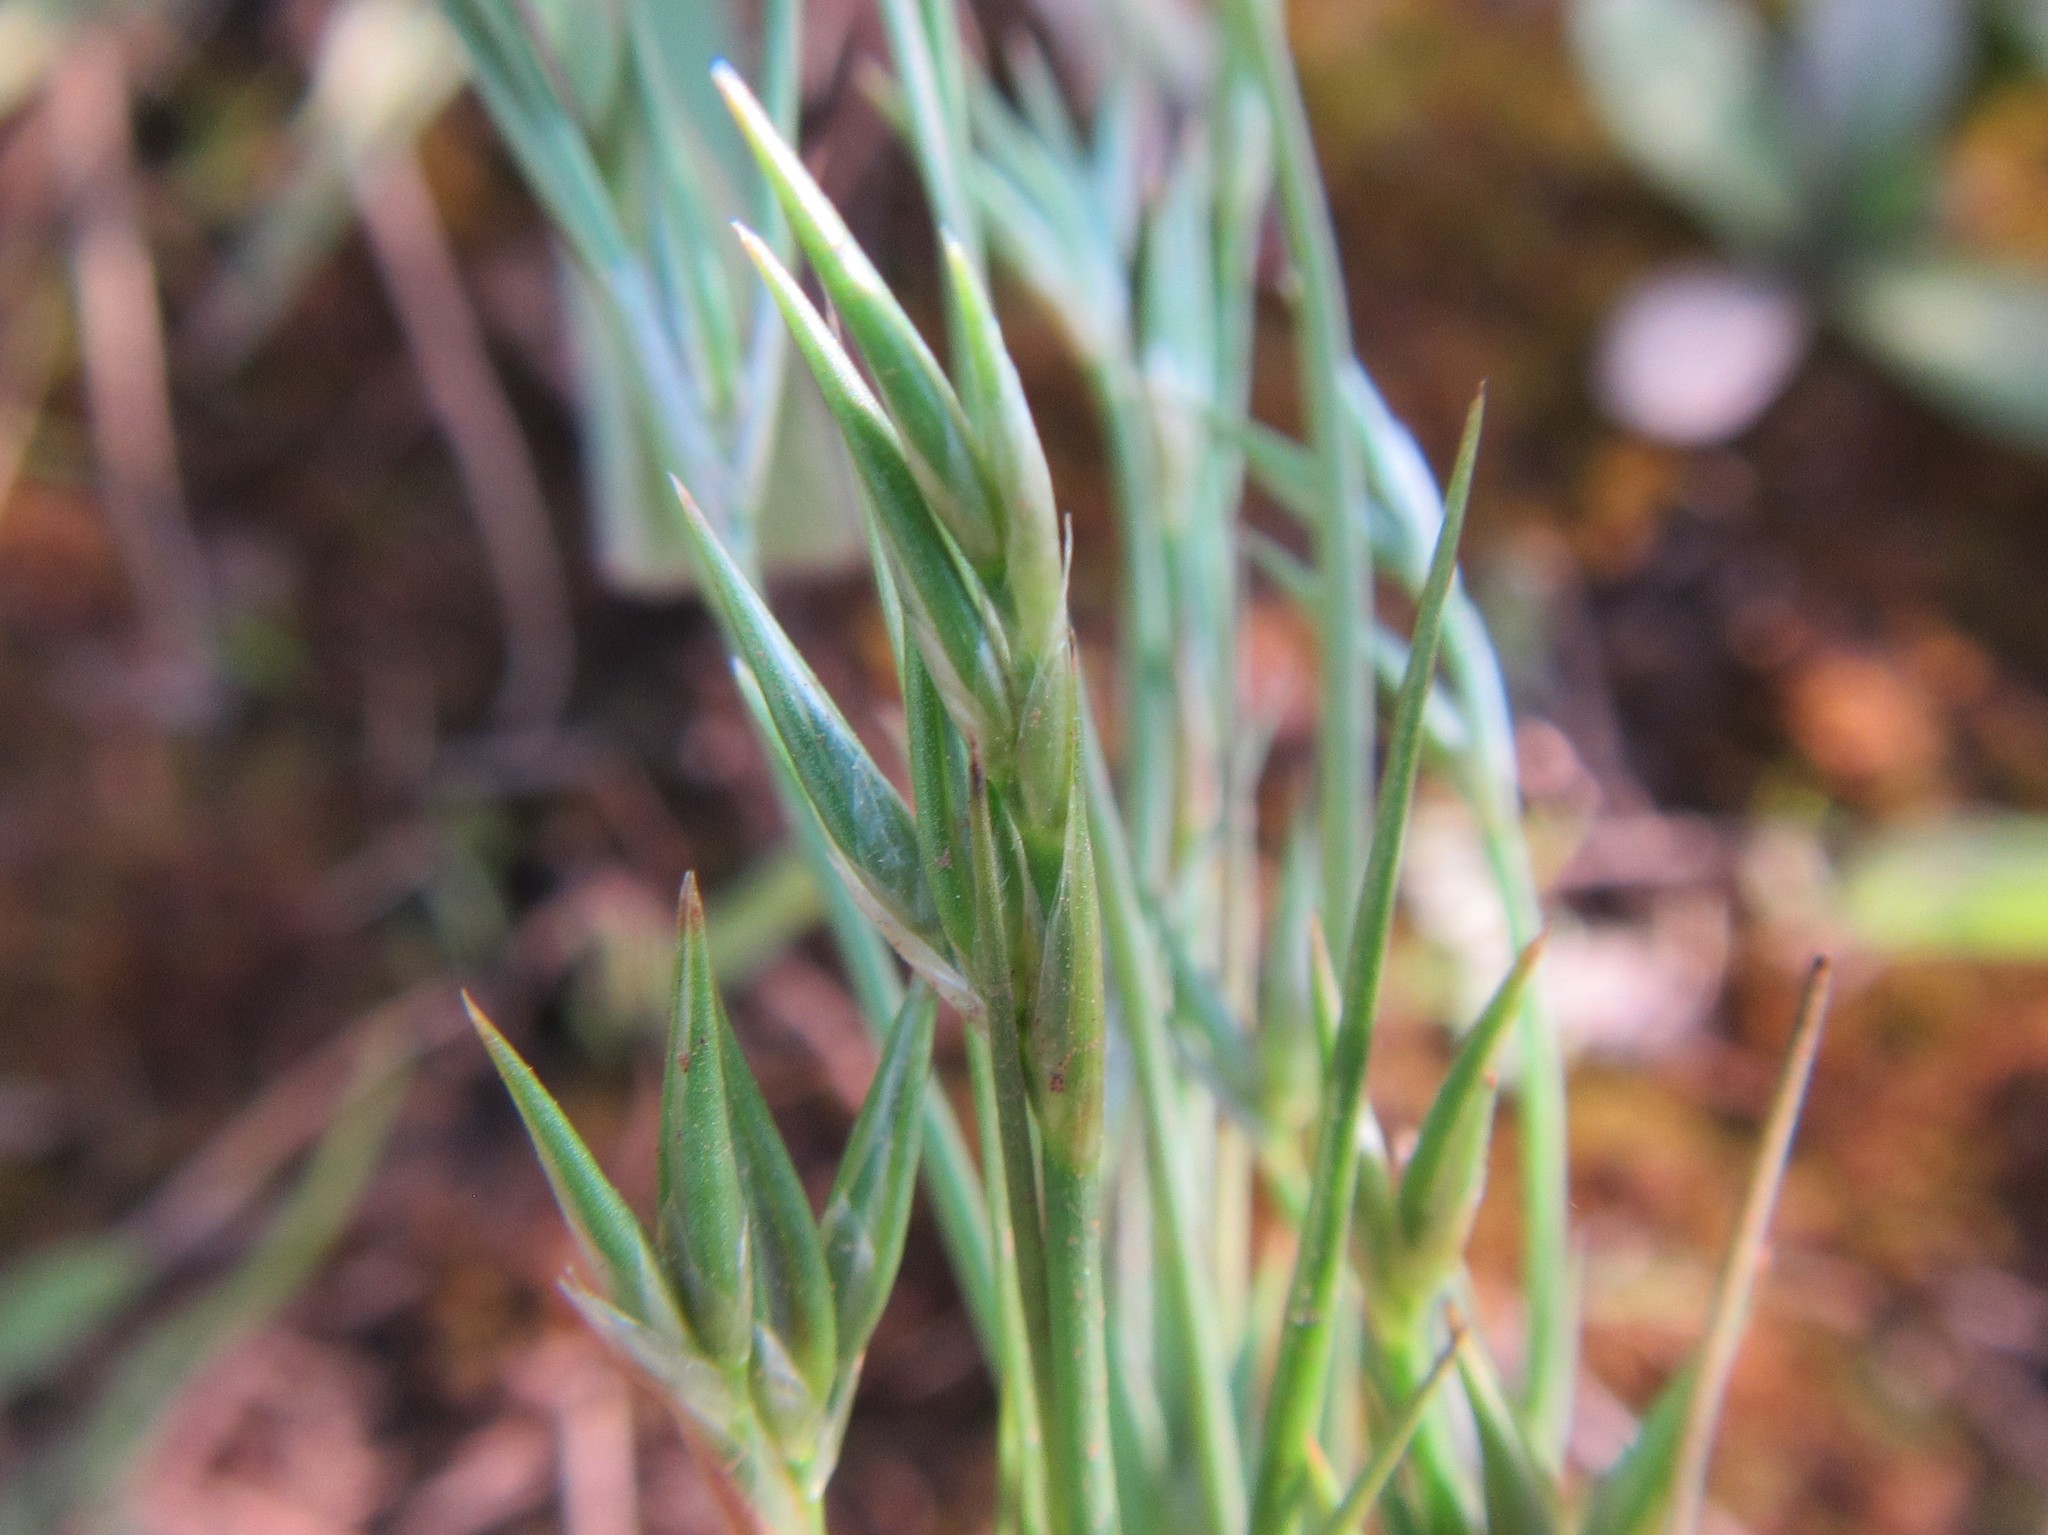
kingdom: Plantae
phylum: Tracheophyta
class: Liliopsida
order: Poales
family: Juncaceae
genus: Juncus
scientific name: Juncus bufonius
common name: Toad rush
